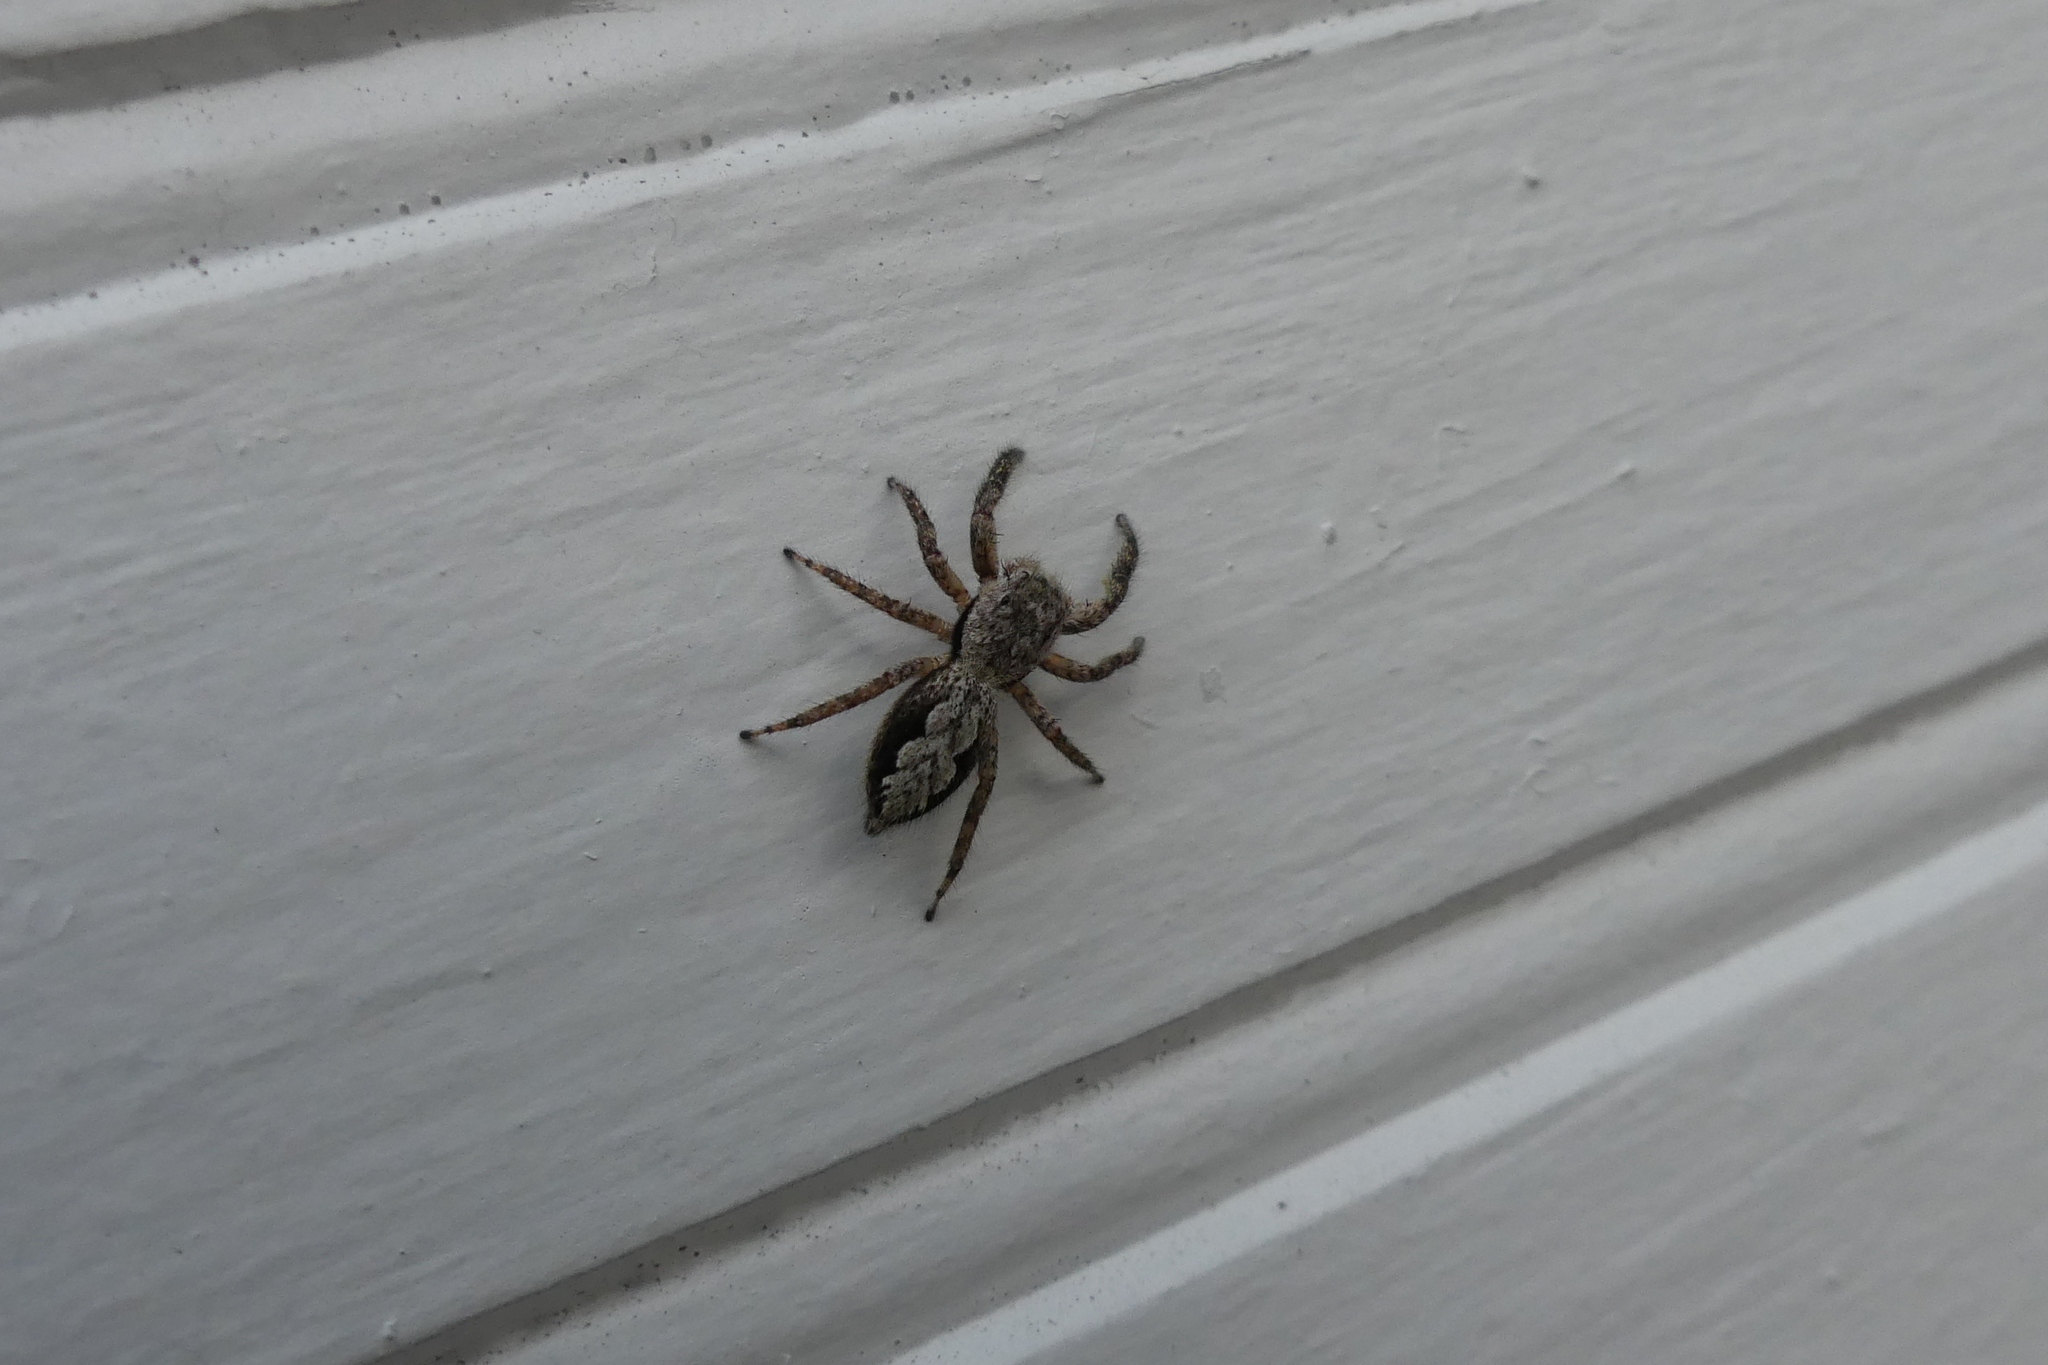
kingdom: Animalia
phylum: Arthropoda
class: Arachnida
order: Araneae
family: Salticidae
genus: Platycryptus
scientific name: Platycryptus undatus
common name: Tan jumping spider
